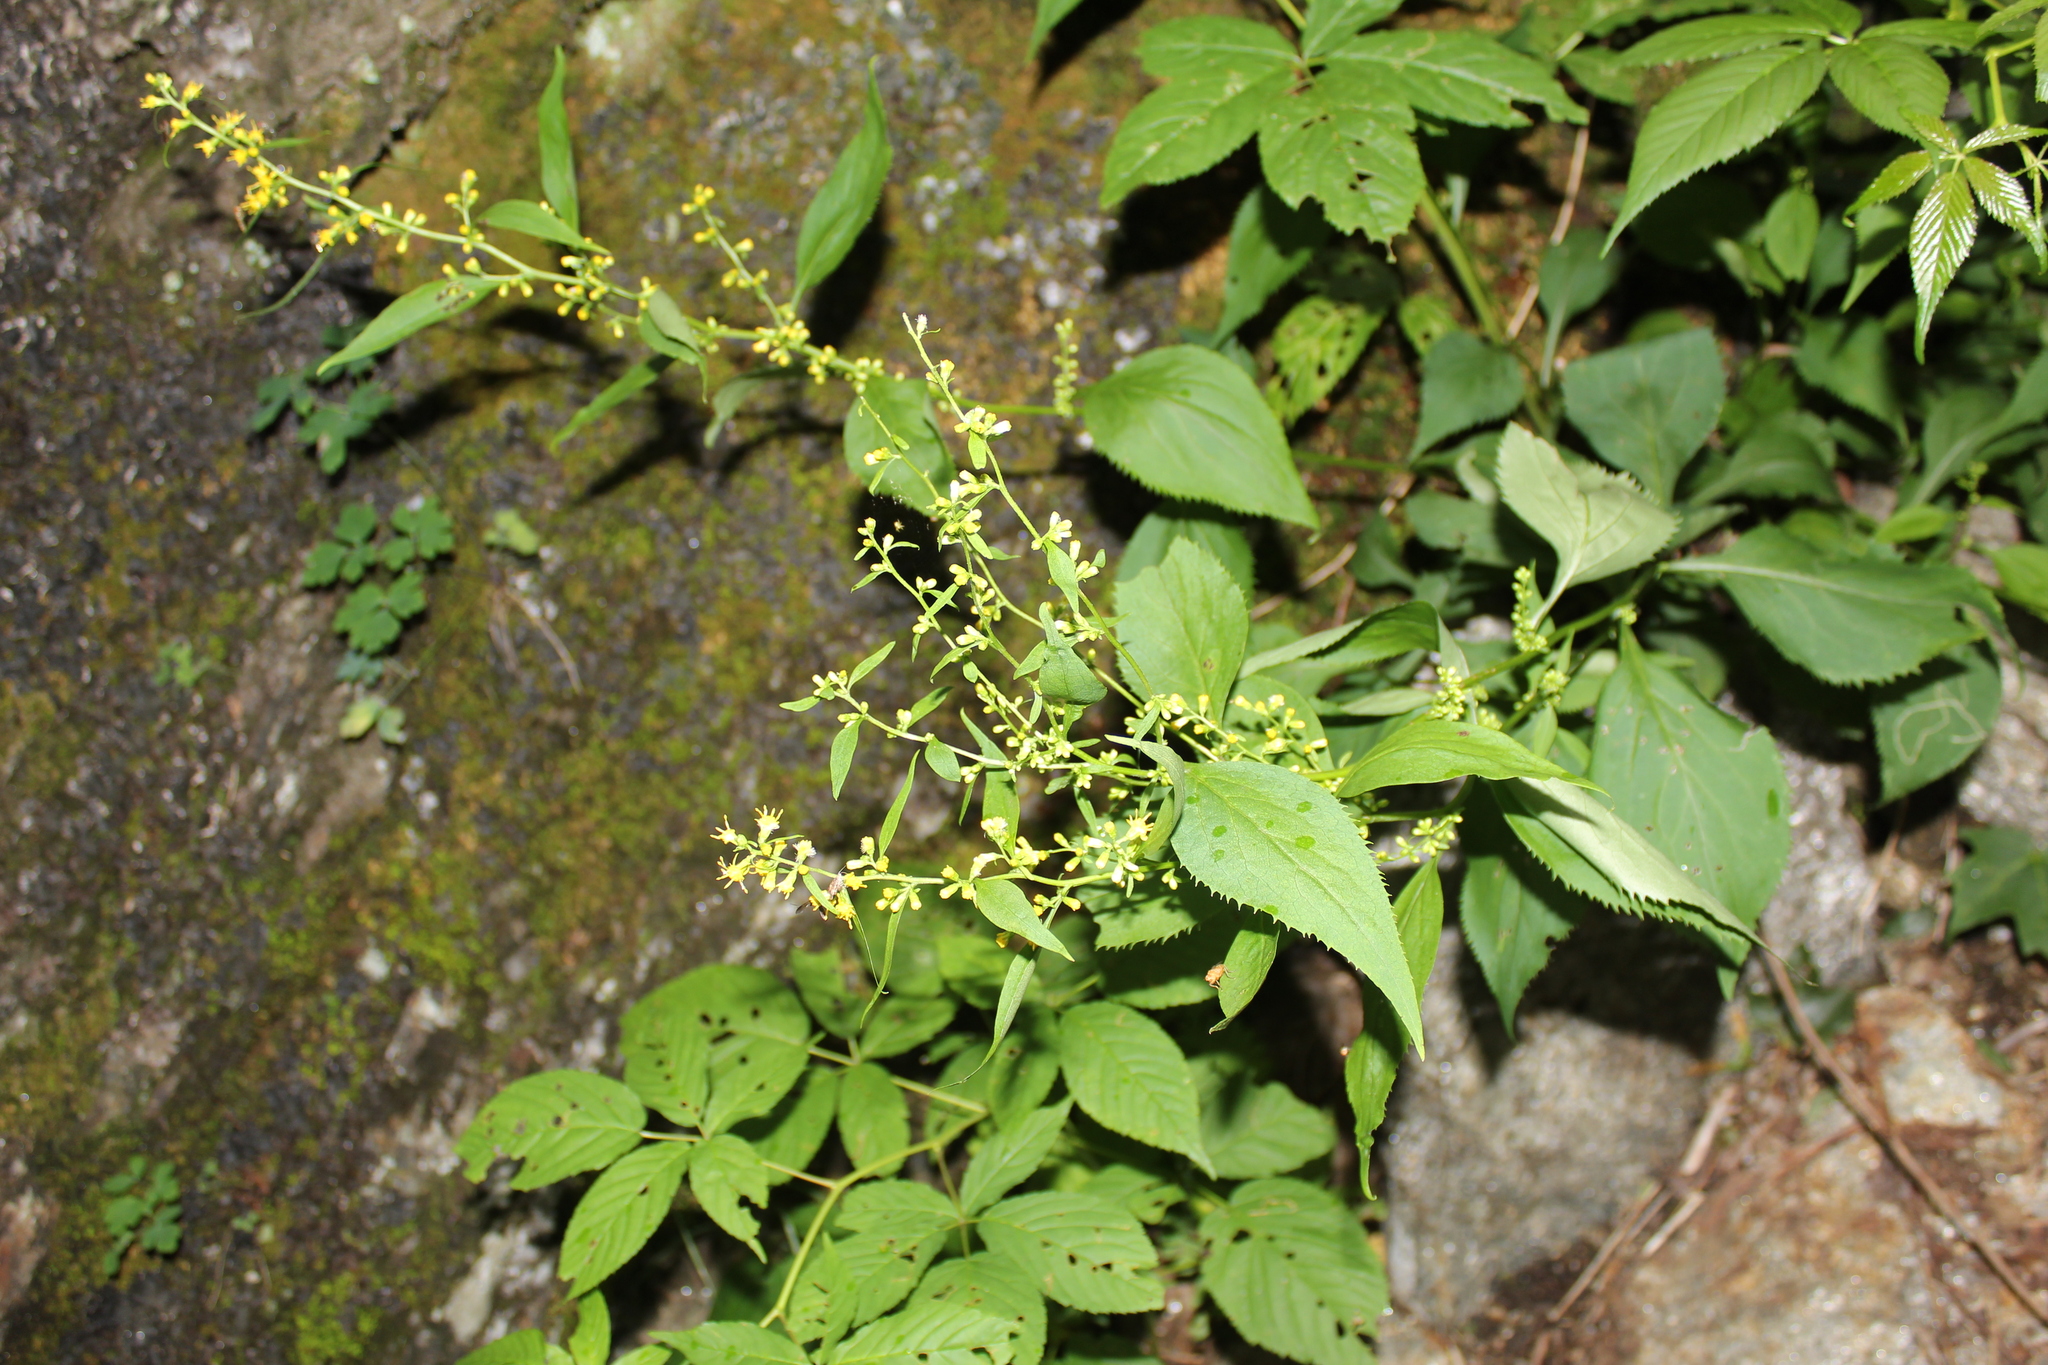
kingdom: Plantae
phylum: Tracheophyta
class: Magnoliopsida
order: Asterales
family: Asteraceae
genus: Solidago
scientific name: Solidago flexicaulis
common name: Zig-zag goldenrod
